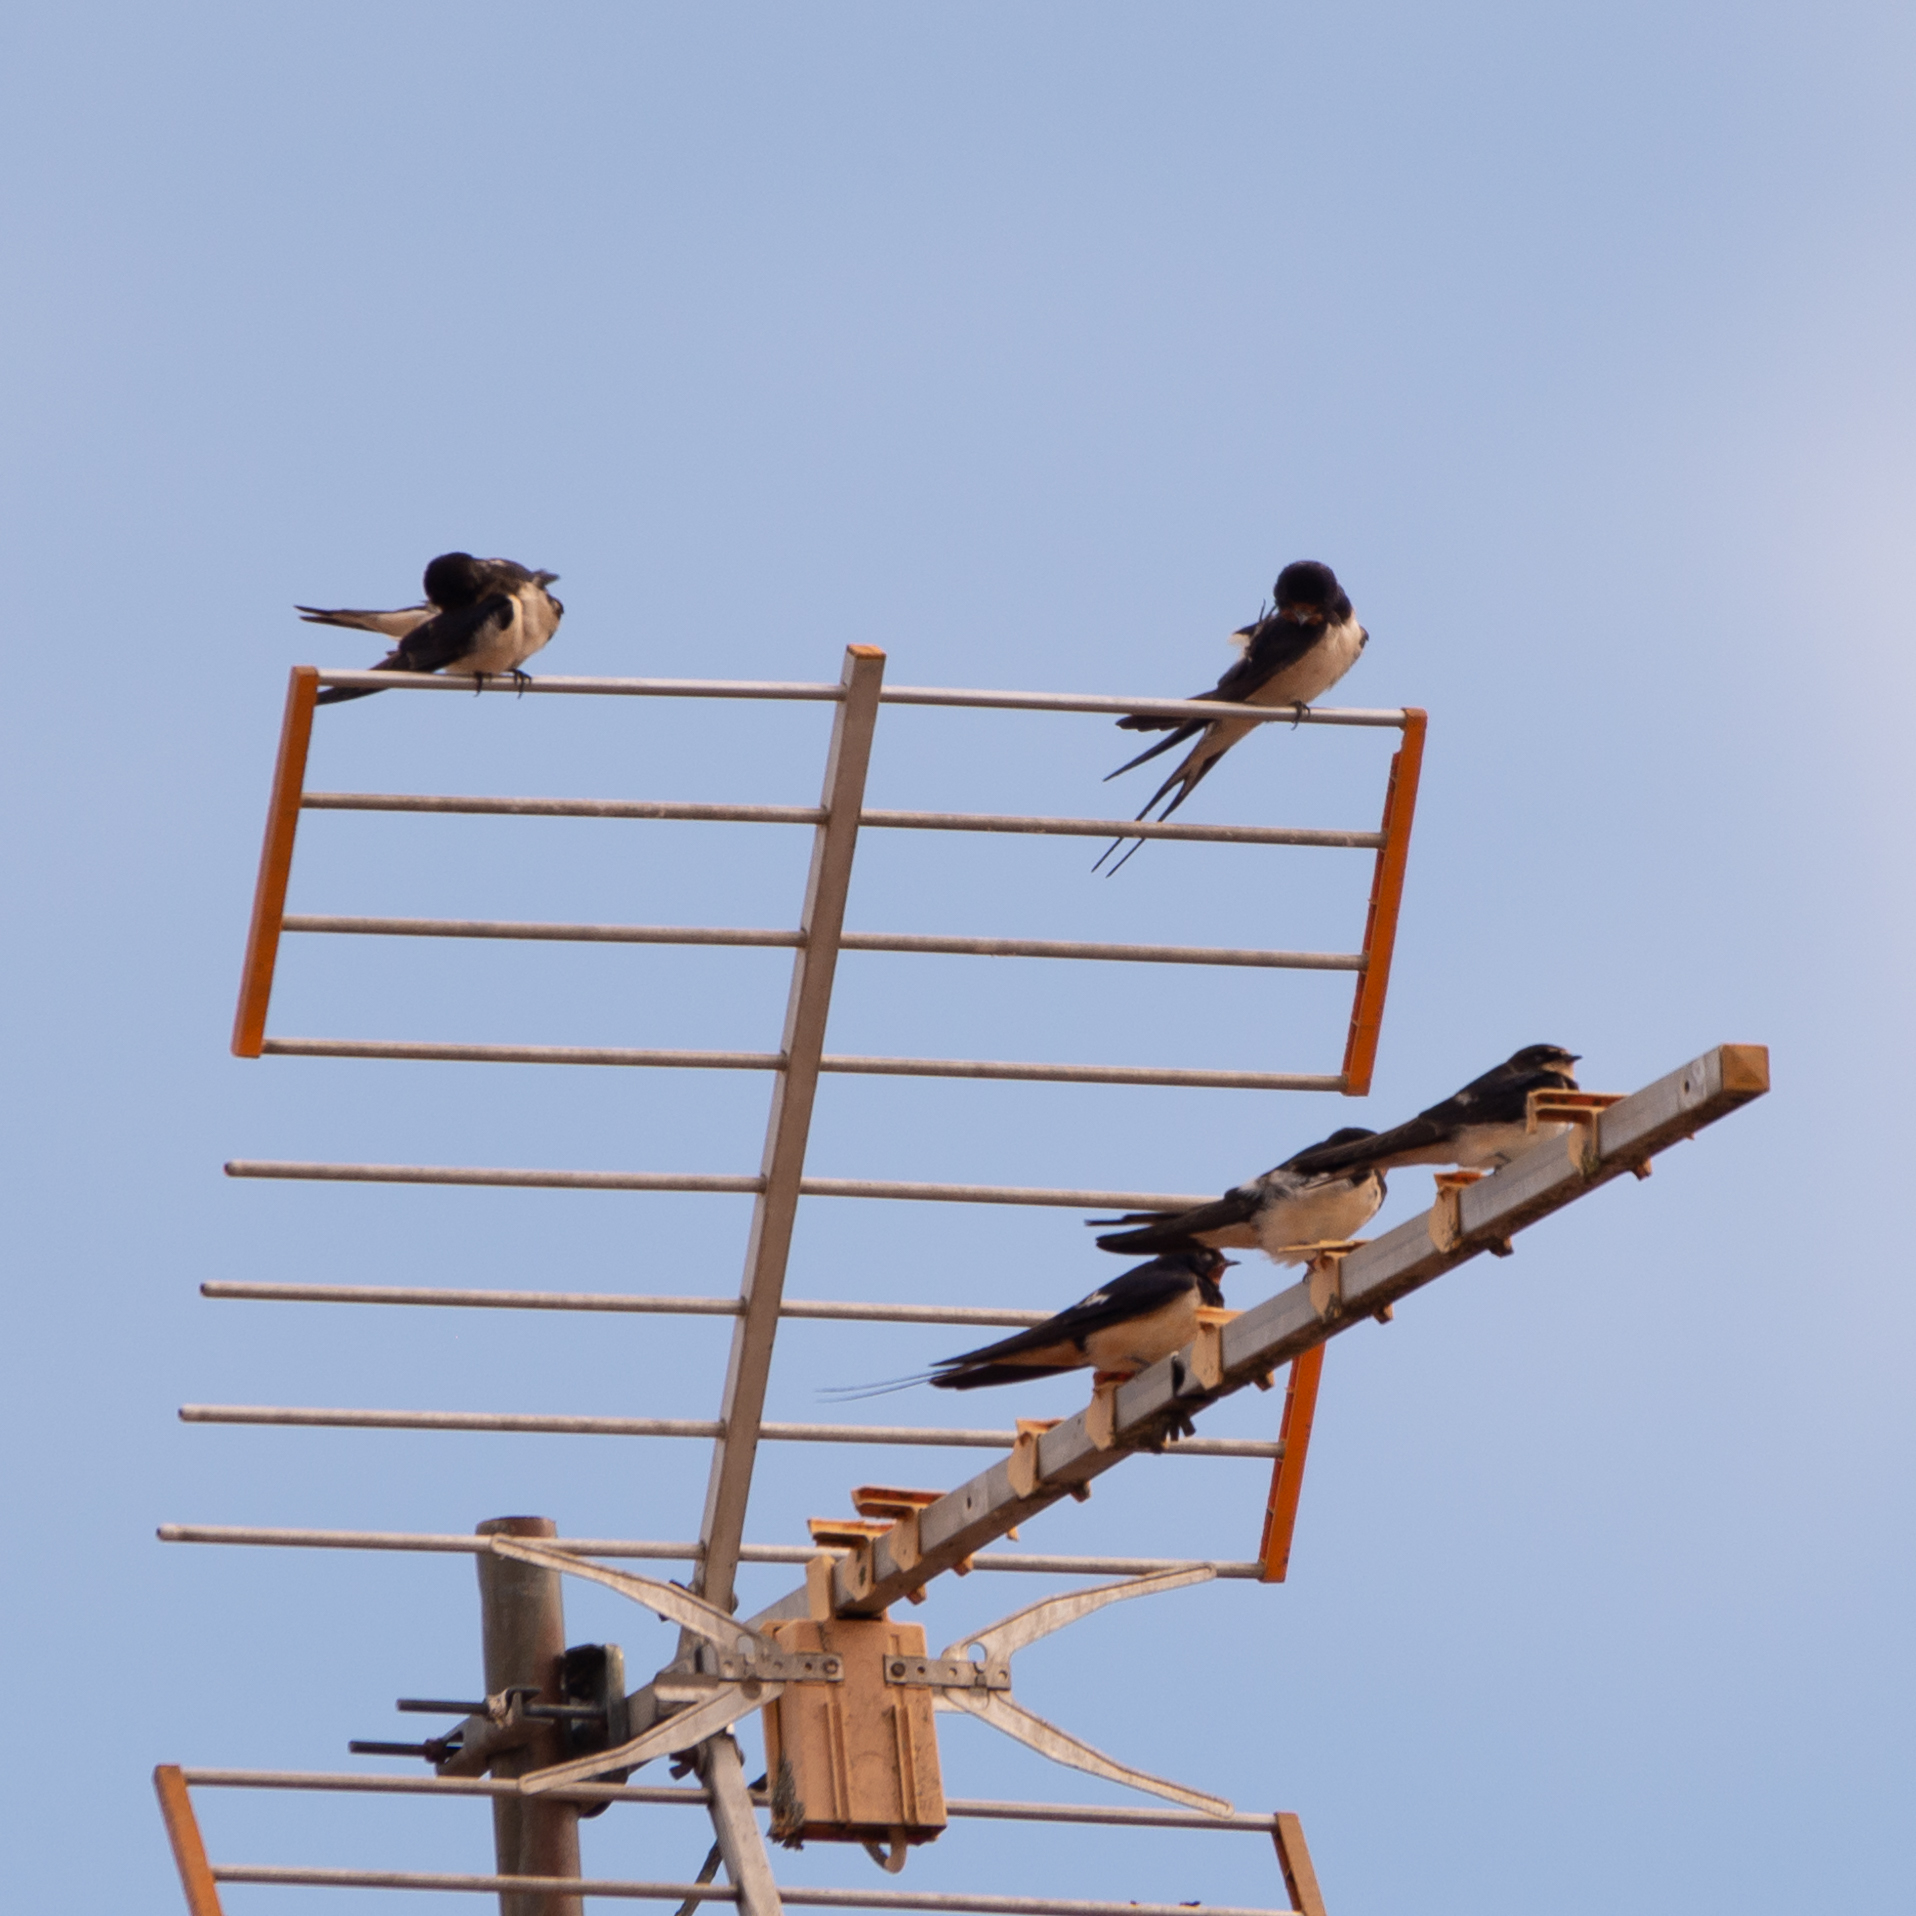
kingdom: Animalia
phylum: Chordata
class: Aves
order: Passeriformes
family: Hirundinidae
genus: Hirundo
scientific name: Hirundo rustica
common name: Barn swallow
